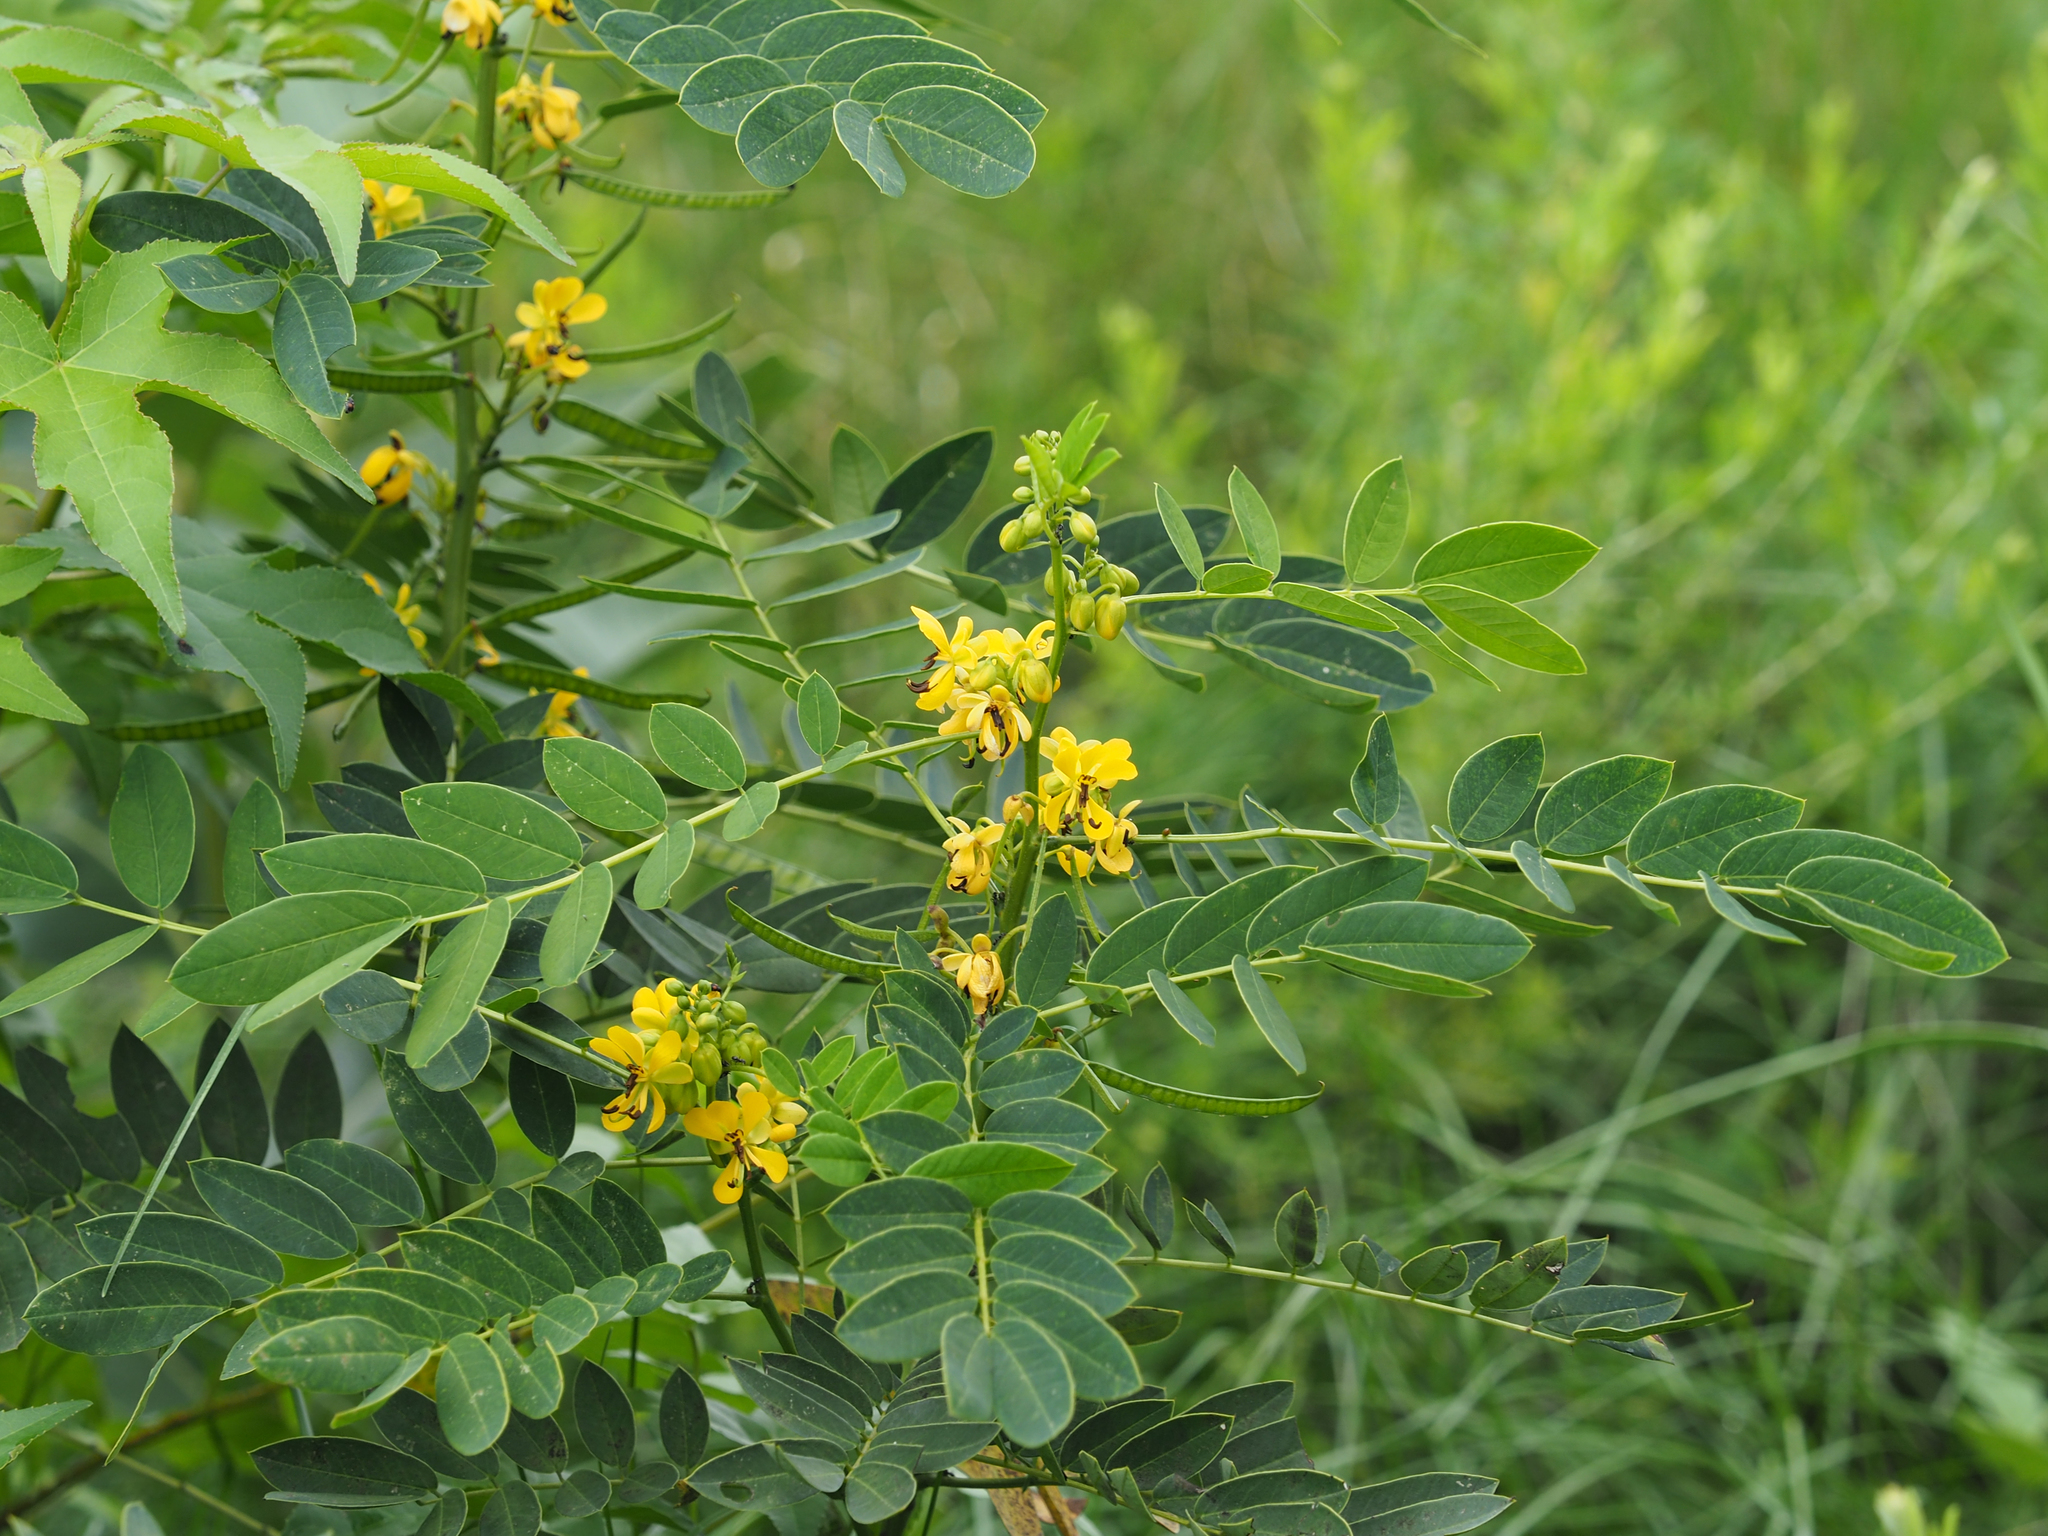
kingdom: Plantae
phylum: Tracheophyta
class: Magnoliopsida
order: Fabales
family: Fabaceae
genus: Senna
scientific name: Senna marilandica
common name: American senna
